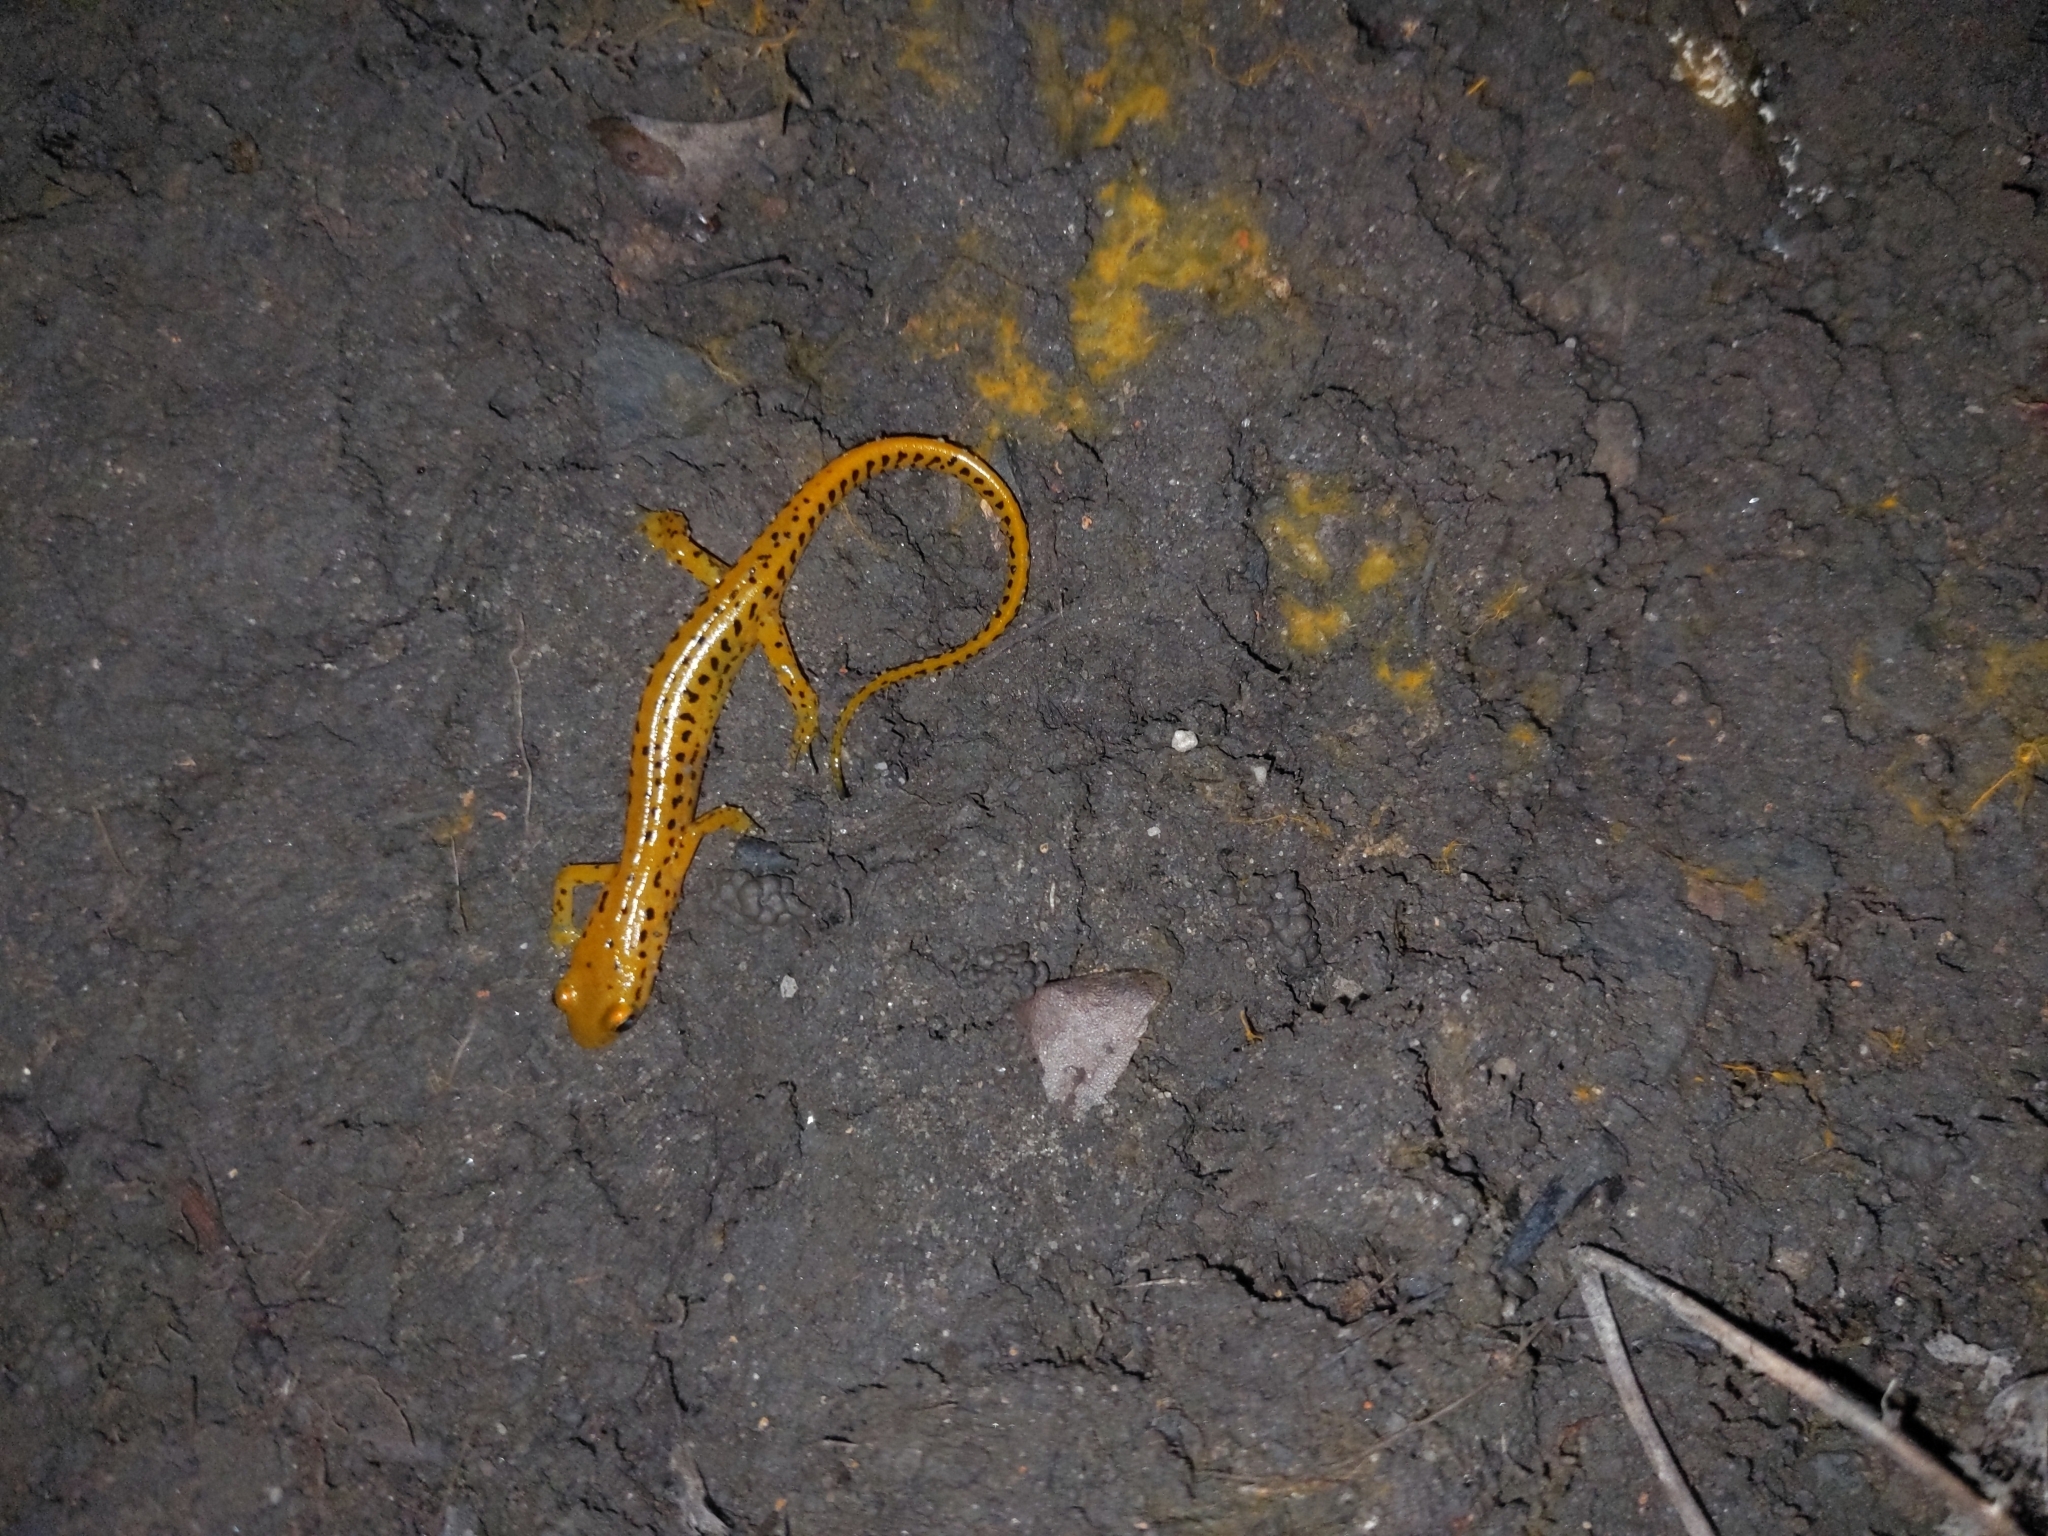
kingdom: Animalia
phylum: Chordata
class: Amphibia
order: Caudata
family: Plethodontidae
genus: Eurycea
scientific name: Eurycea longicauda
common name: Long-tailed salamander
